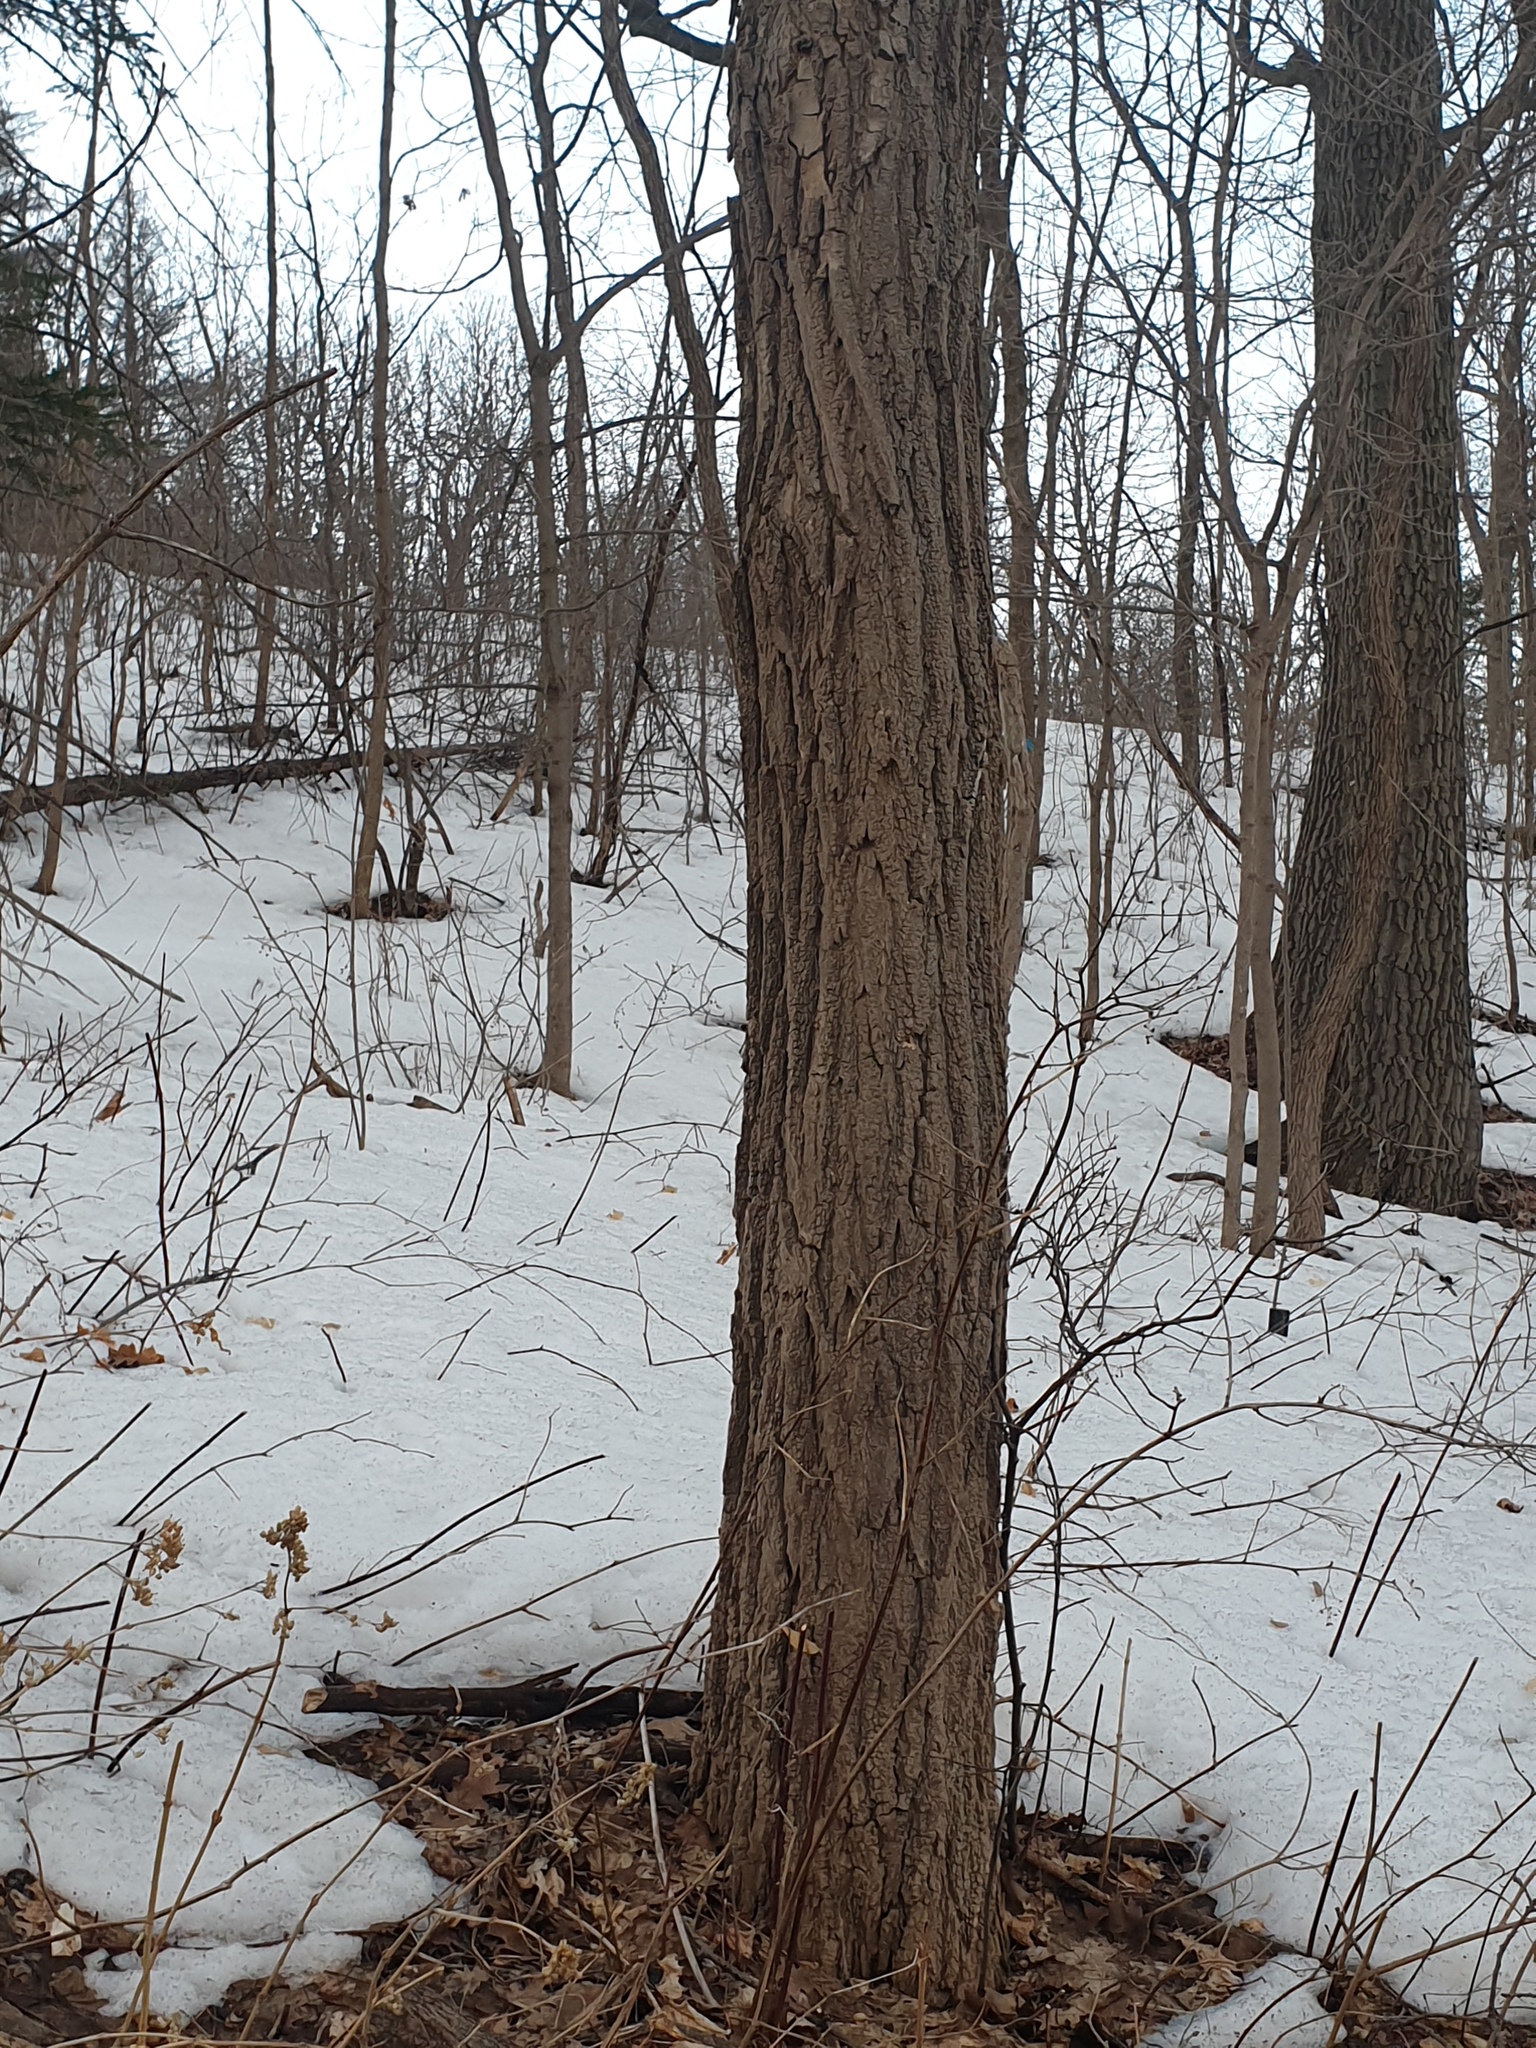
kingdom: Plantae
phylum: Tracheophyta
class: Magnoliopsida
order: Fabales
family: Fabaceae
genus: Robinia
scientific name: Robinia pseudoacacia
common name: Black locust
